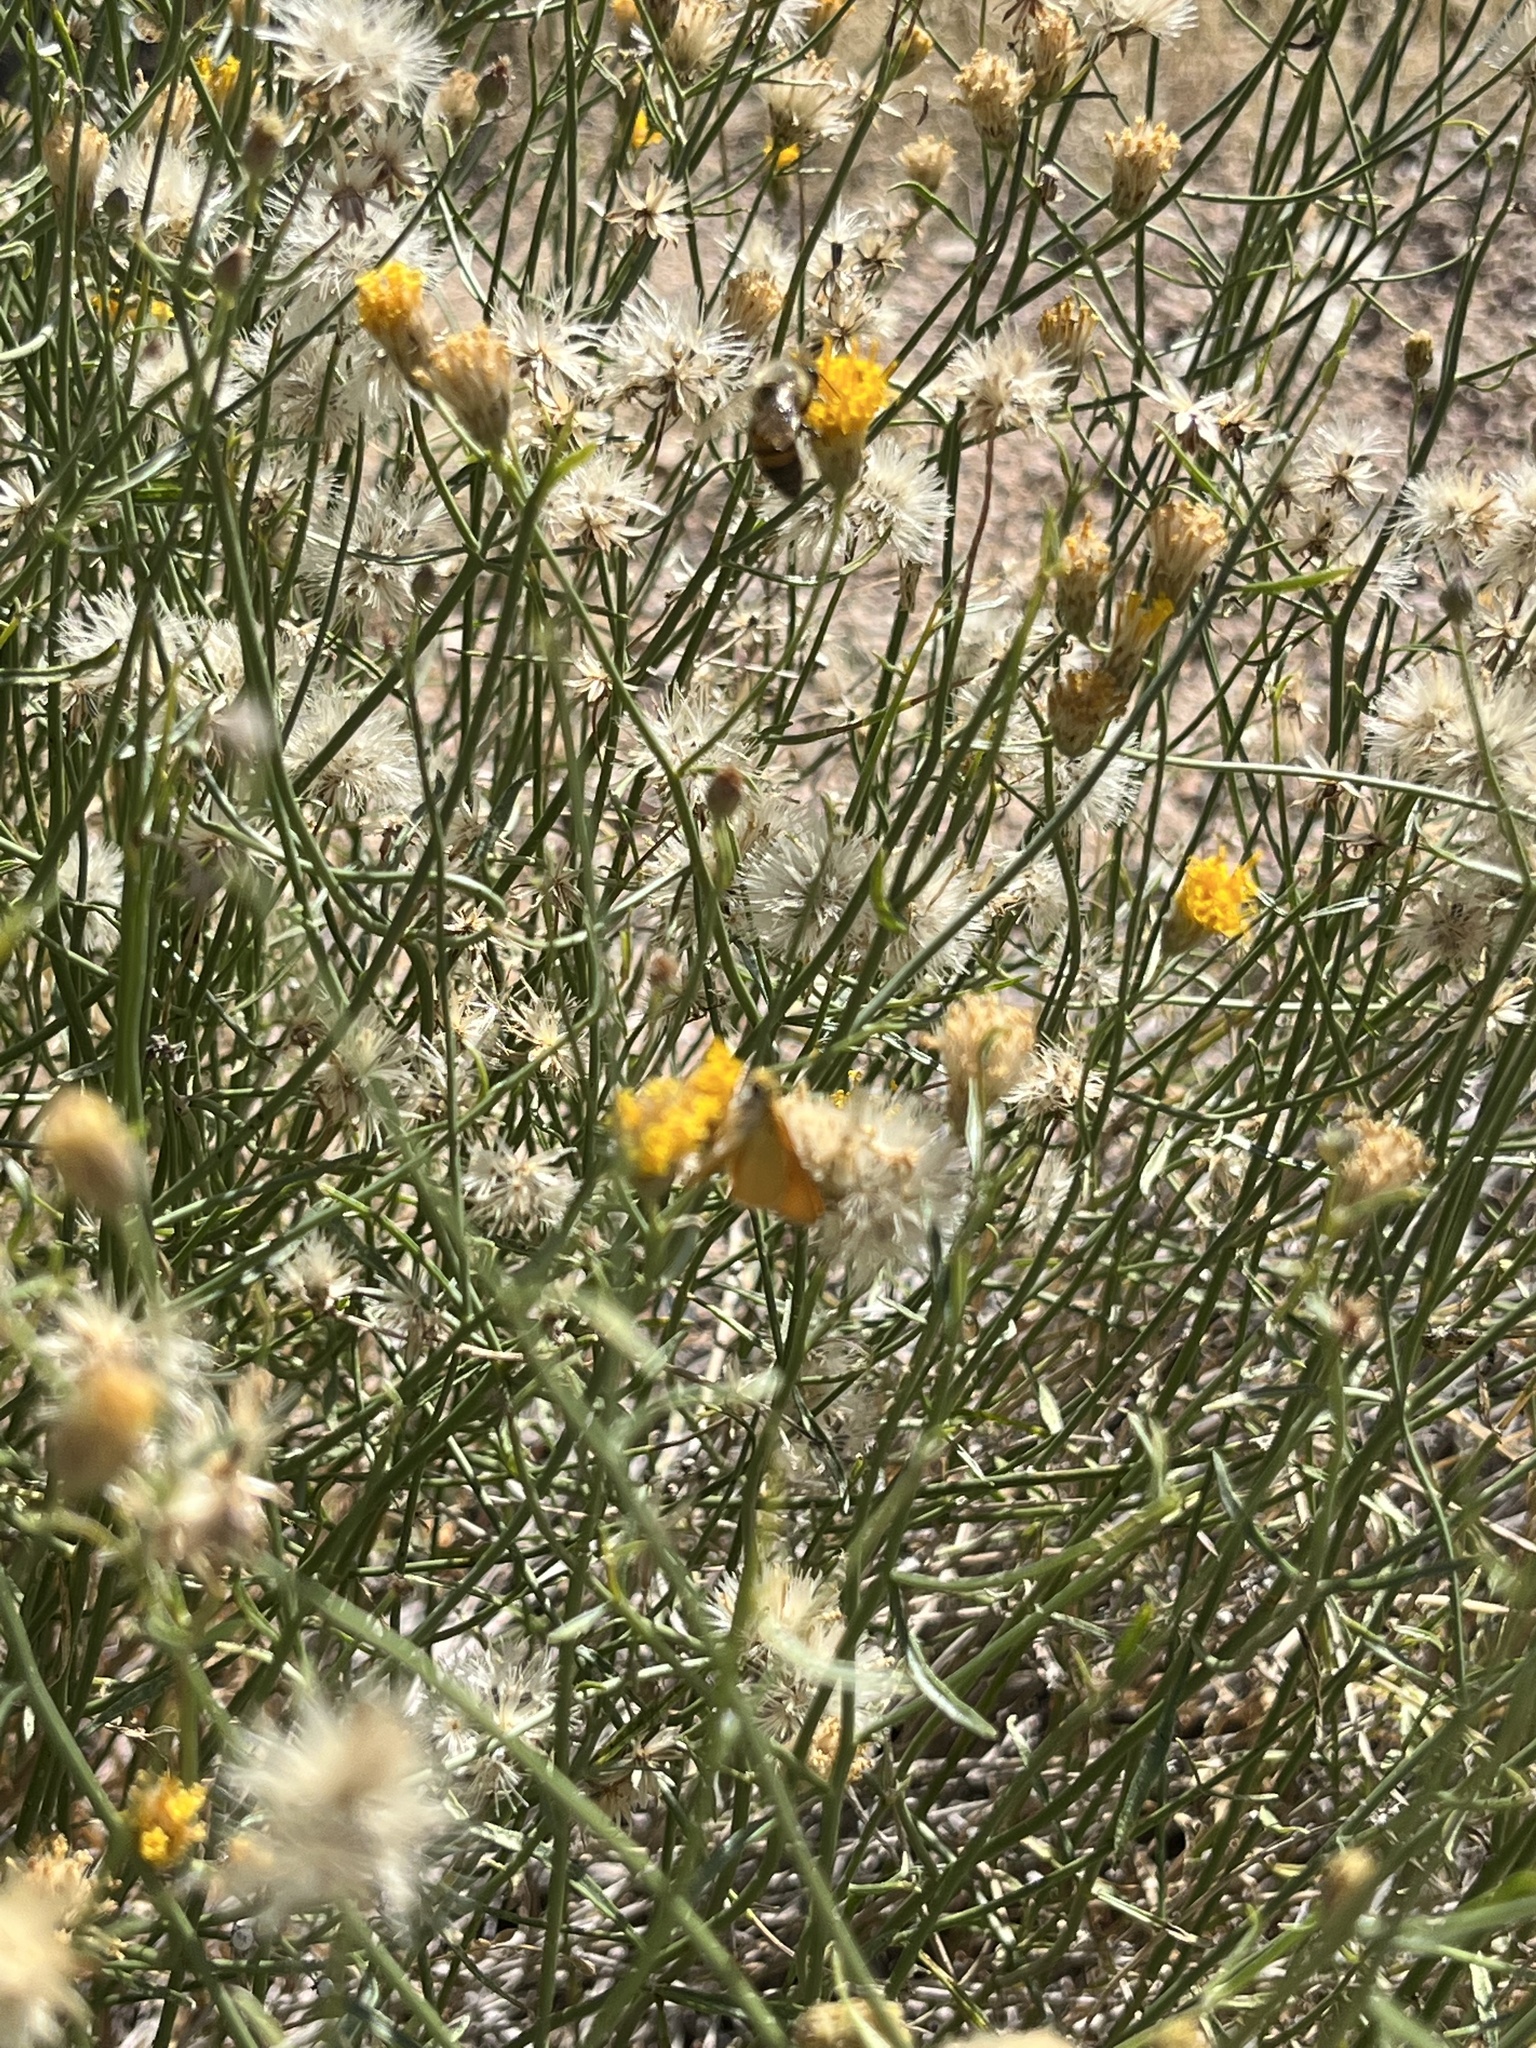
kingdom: Plantae
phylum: Tracheophyta
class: Magnoliopsida
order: Asterales
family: Asteraceae
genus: Bebbia
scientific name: Bebbia juncea
